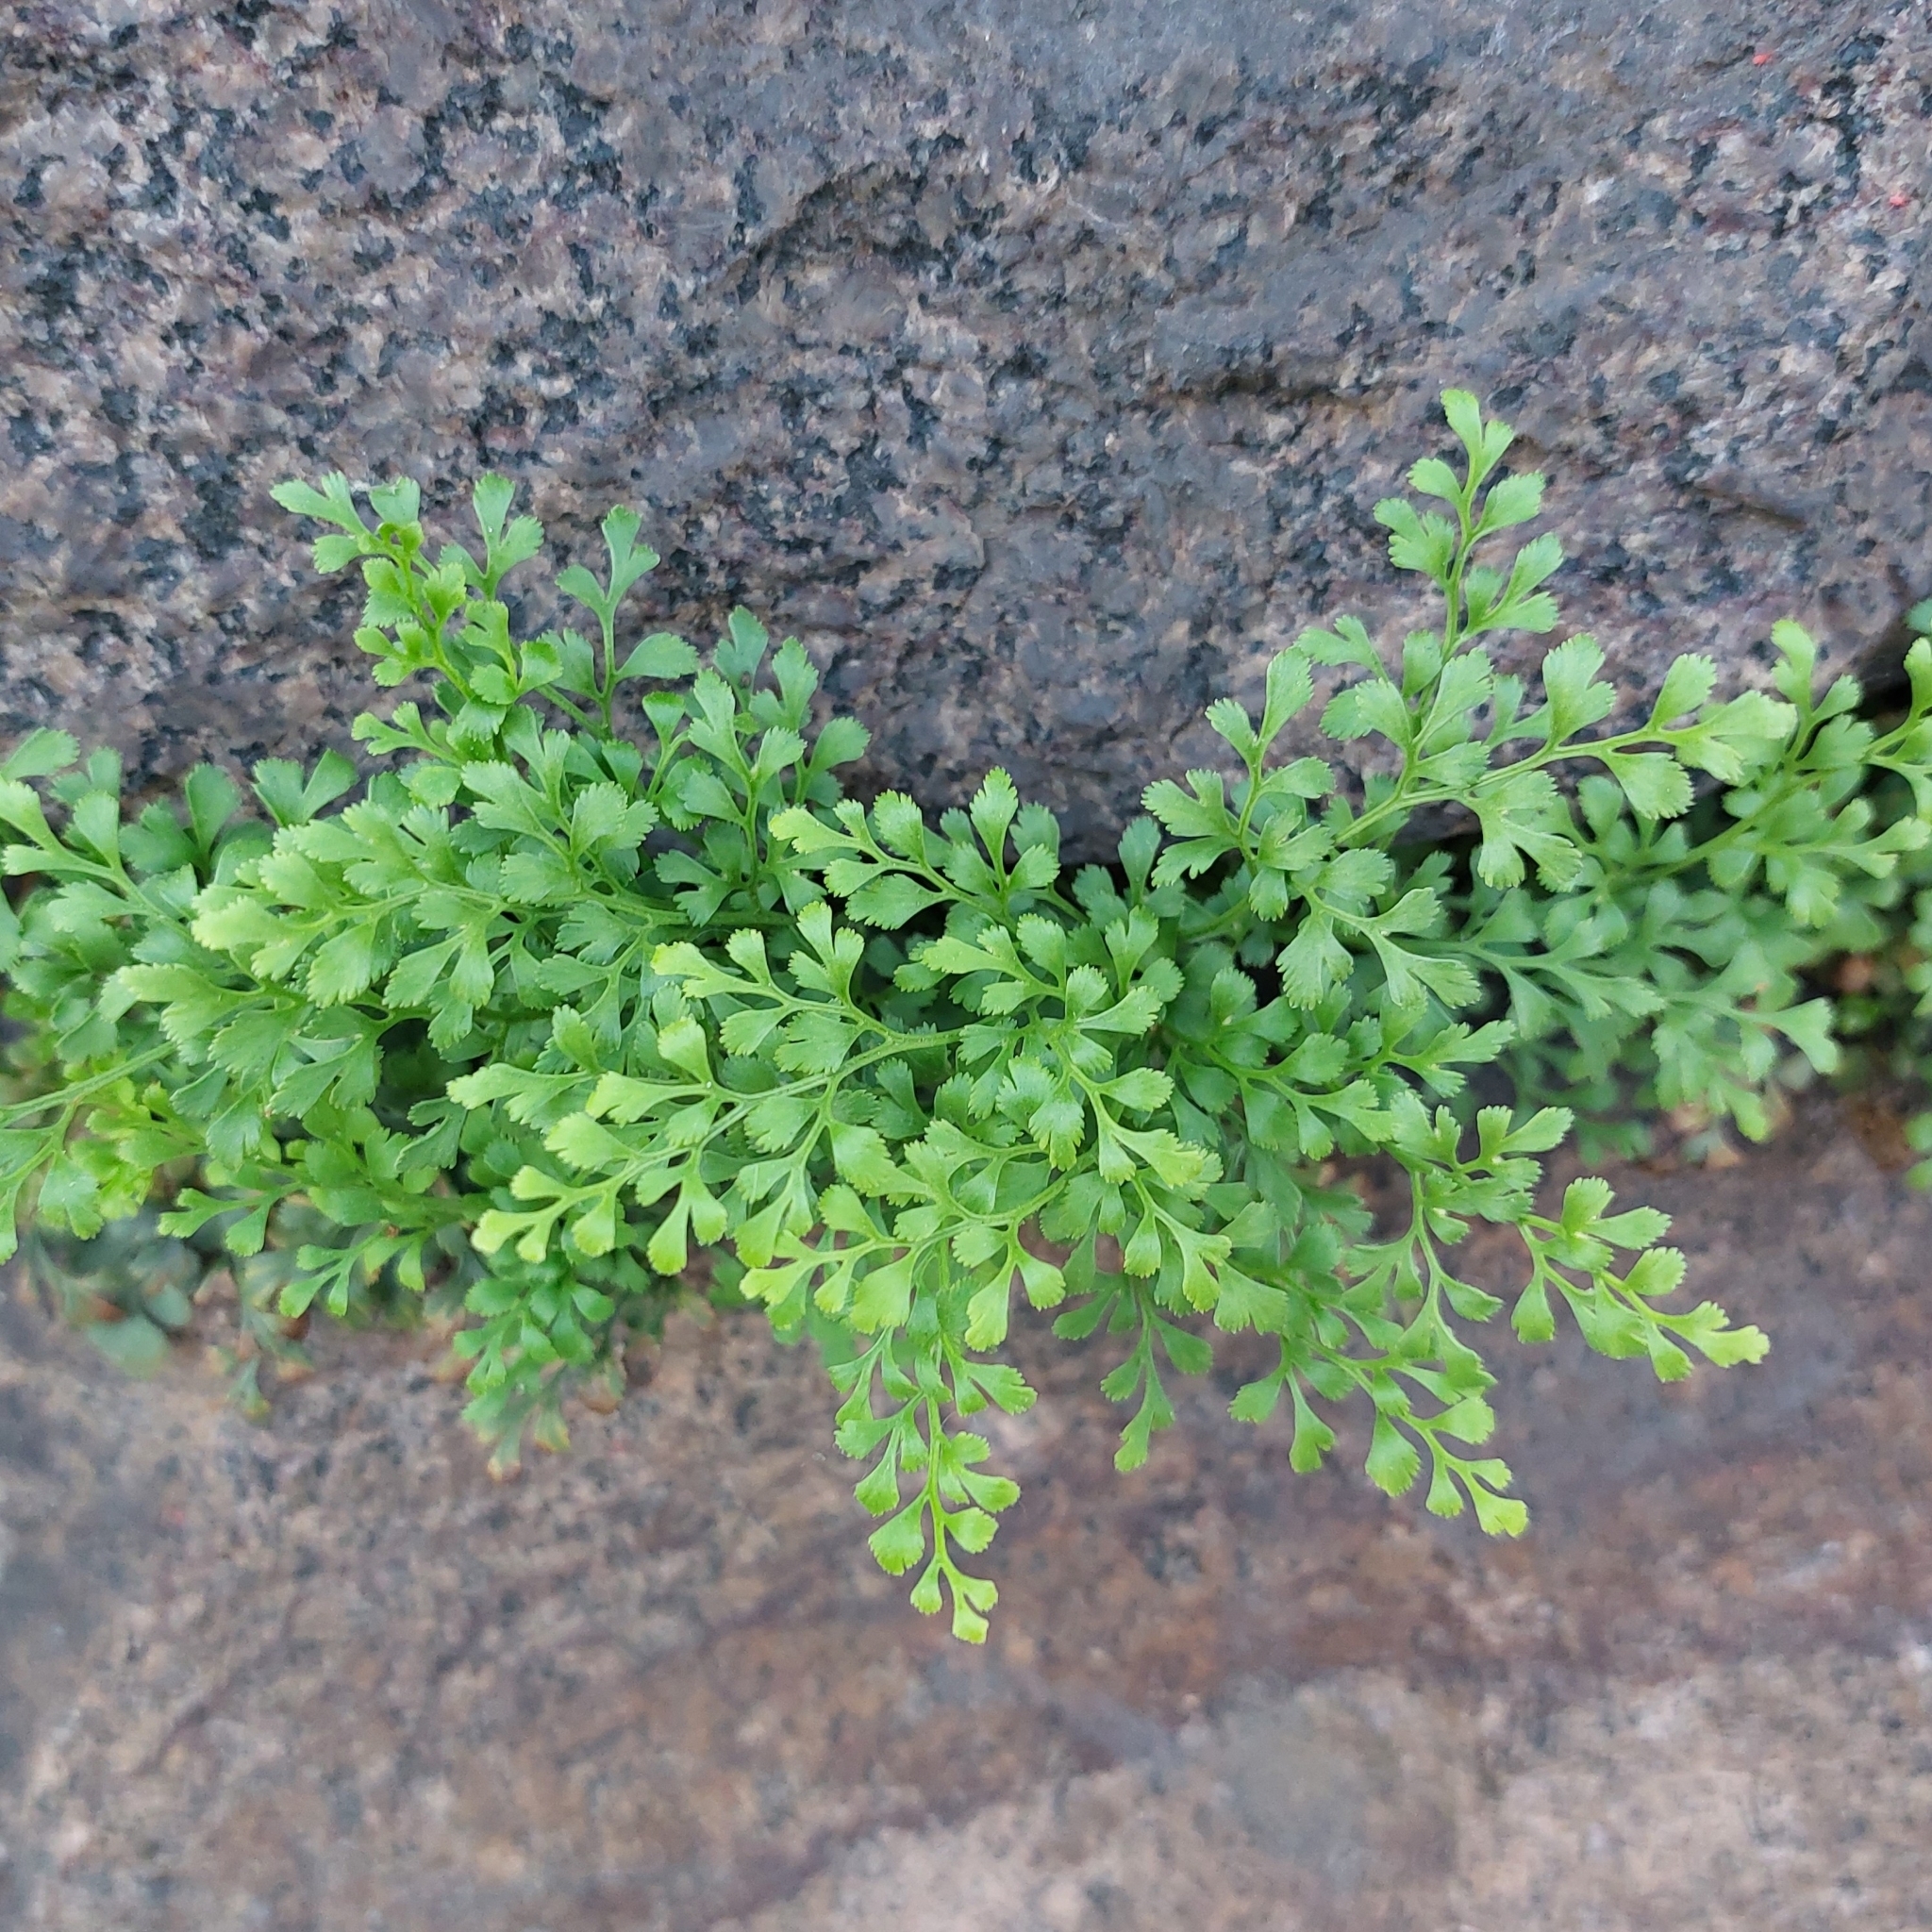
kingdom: Plantae
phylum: Tracheophyta
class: Polypodiopsida
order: Polypodiales
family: Aspleniaceae
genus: Asplenium
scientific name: Asplenium ruta-muraria
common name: Wall-rue
